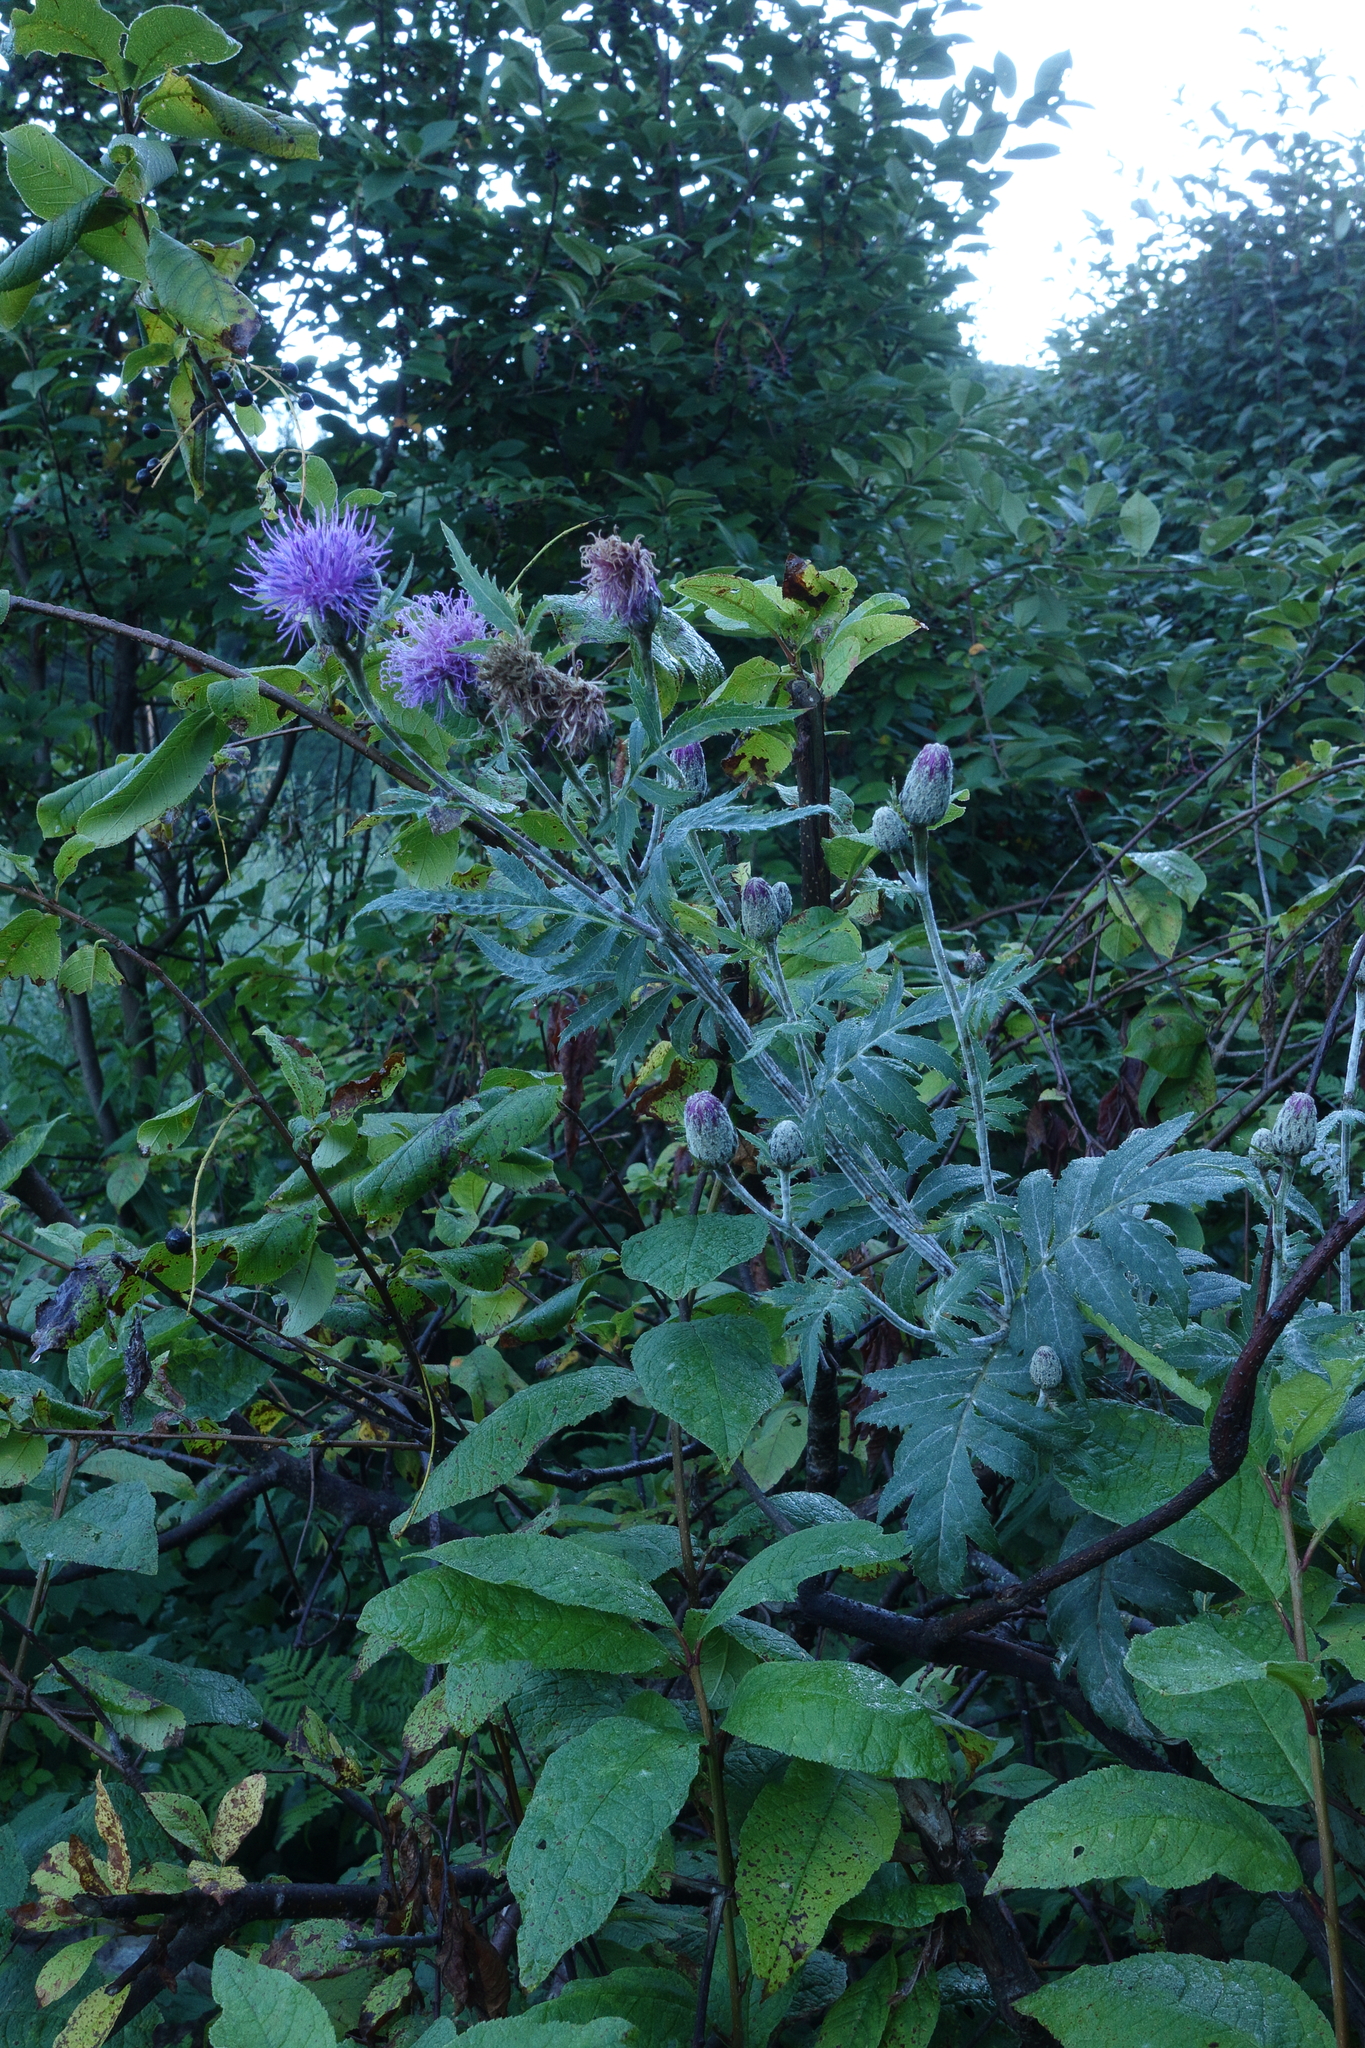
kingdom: Plantae
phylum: Tracheophyta
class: Magnoliopsida
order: Asterales
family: Asteraceae
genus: Serratula
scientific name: Serratula coronata
